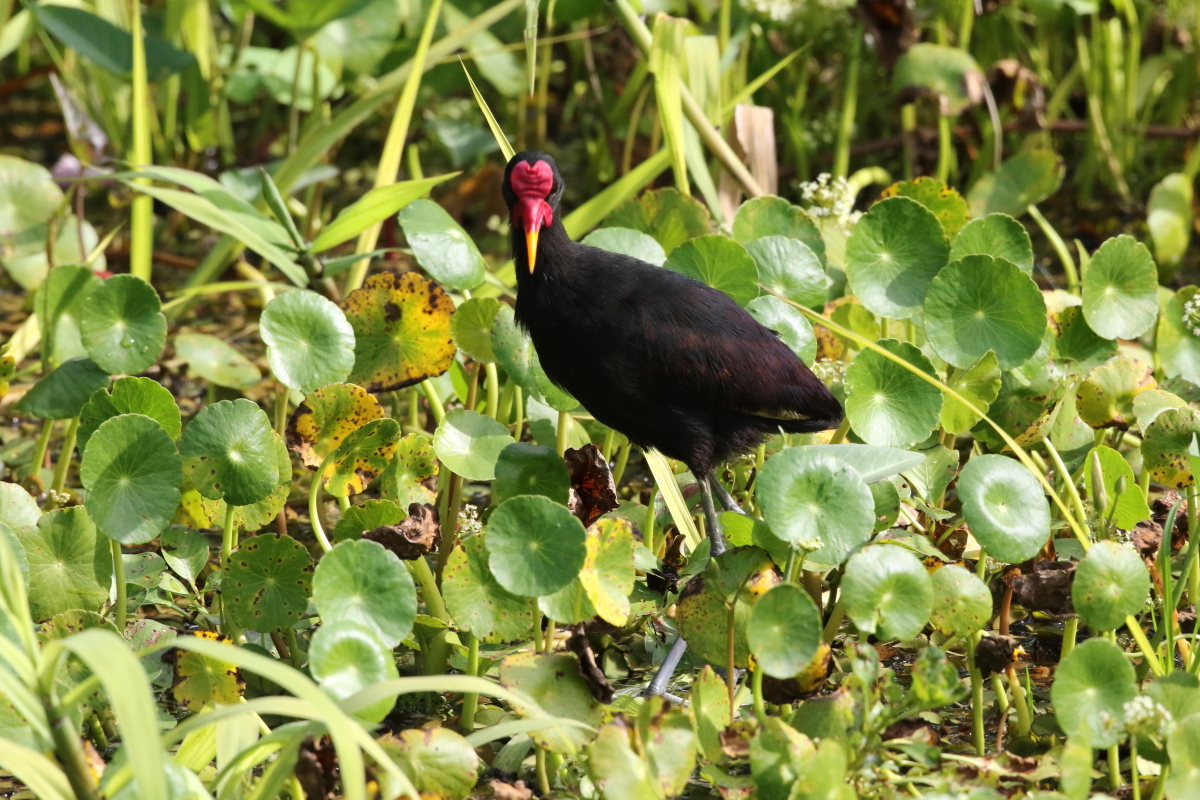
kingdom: Animalia
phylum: Chordata
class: Aves
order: Charadriiformes
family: Jacanidae
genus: Jacana
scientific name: Jacana jacana
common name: Wattled jacana
